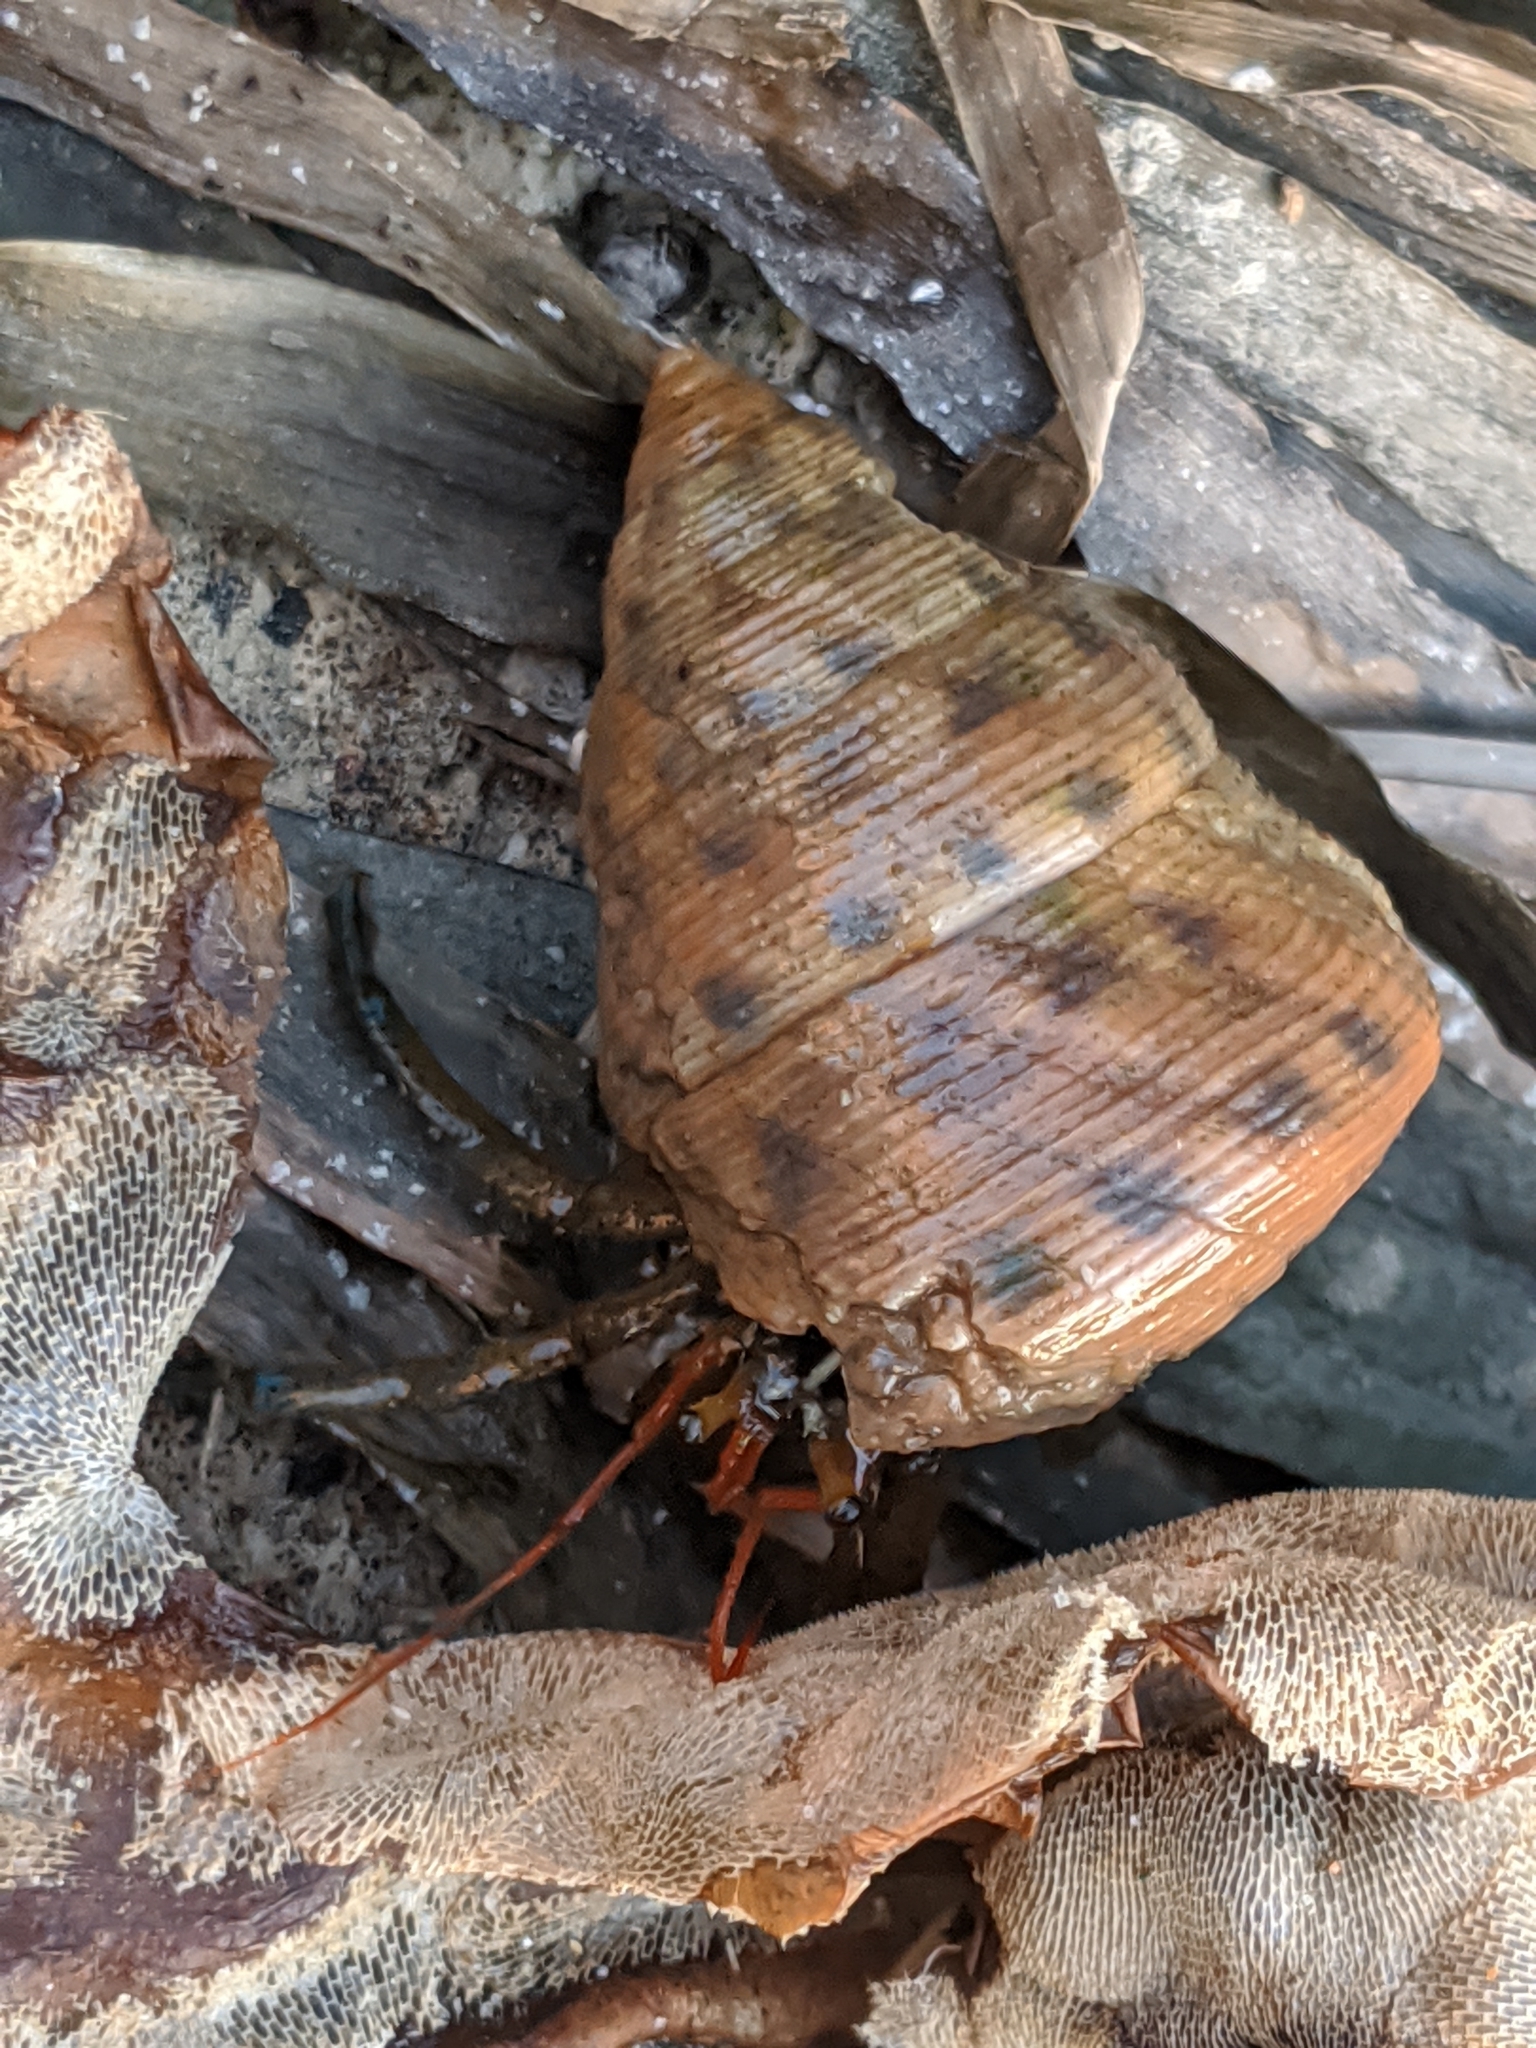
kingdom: Animalia
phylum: Mollusca
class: Gastropoda
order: Trochida
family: Calliostomatidae
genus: Calliostoma
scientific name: Calliostoma gloriosum
